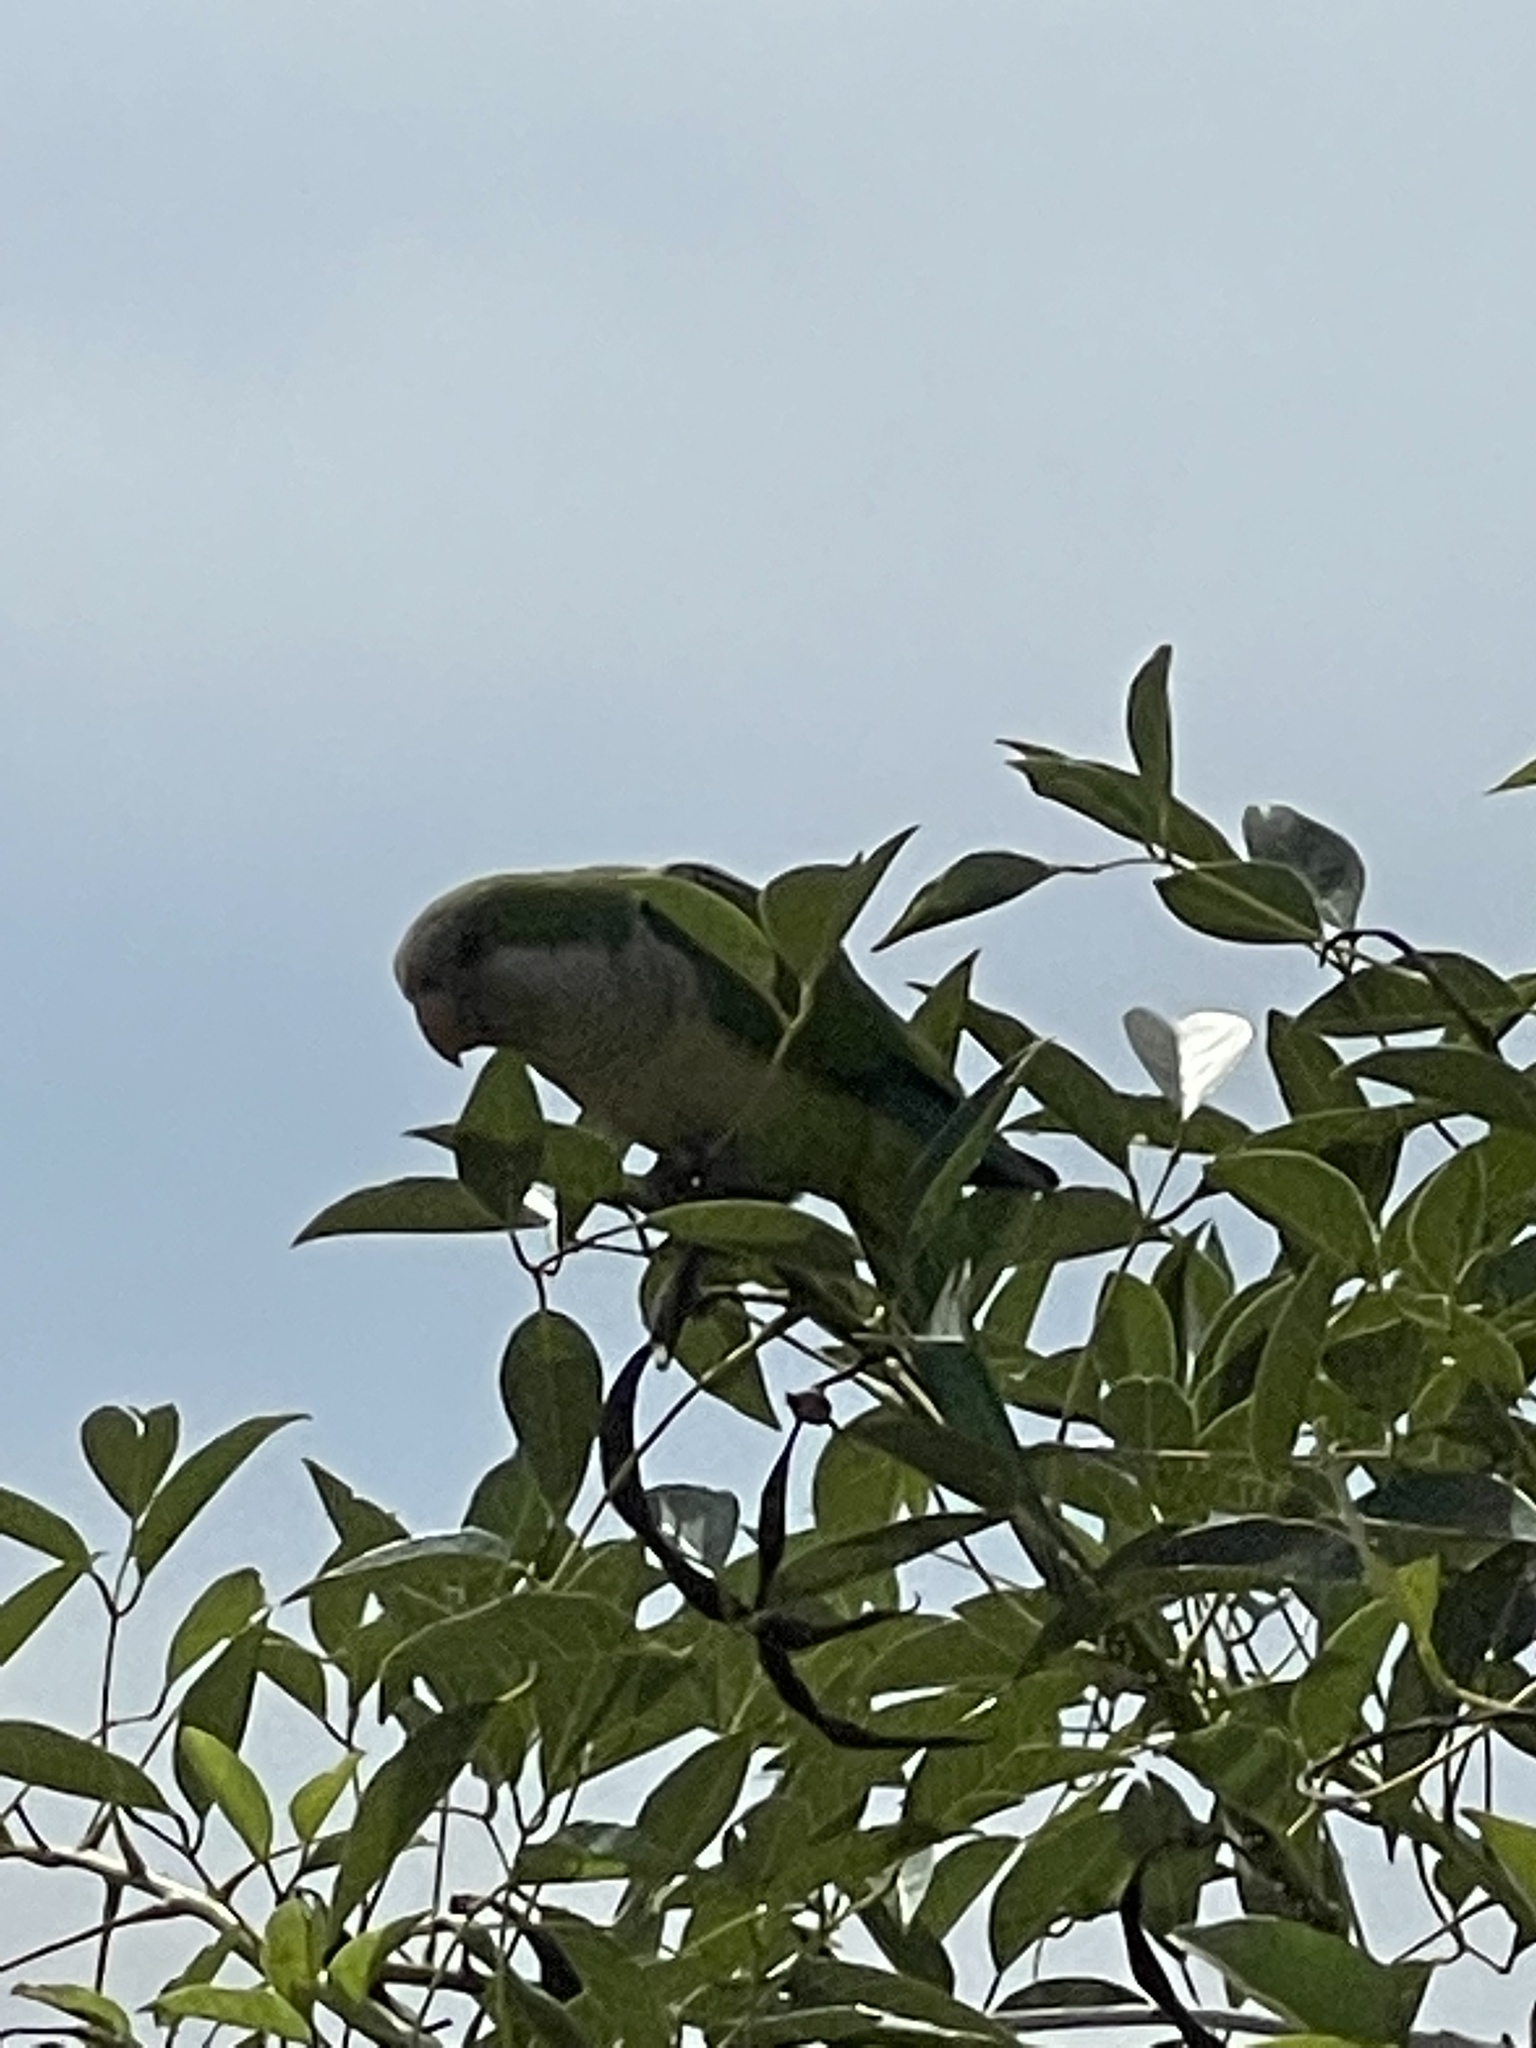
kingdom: Animalia
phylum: Chordata
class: Aves
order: Psittaciformes
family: Psittacidae
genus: Myiopsitta
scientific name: Myiopsitta monachus
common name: Monk parakeet
